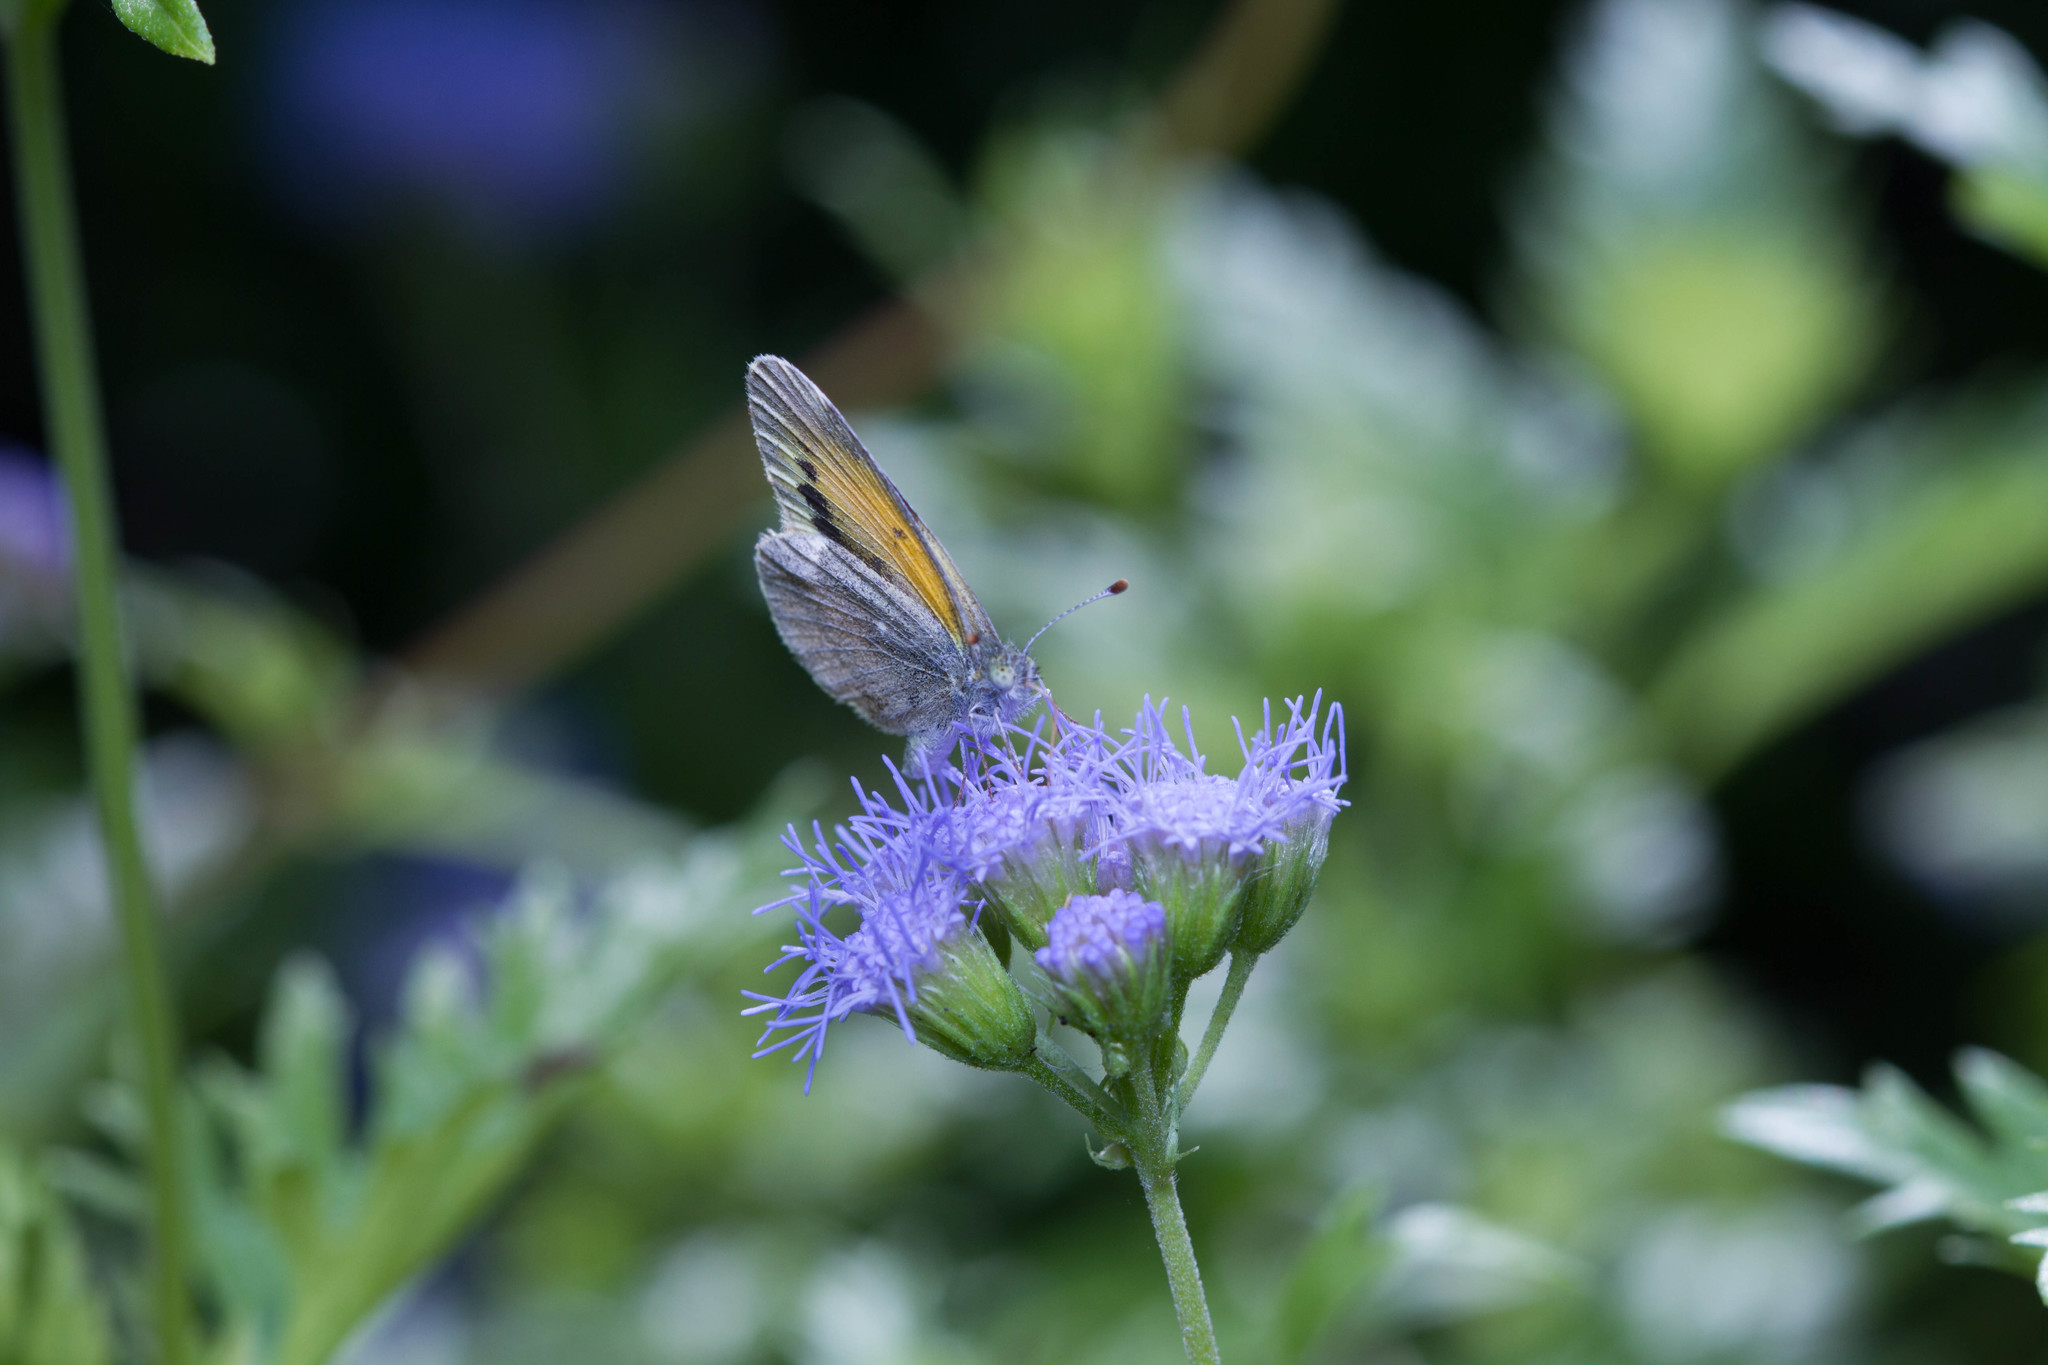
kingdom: Animalia
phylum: Arthropoda
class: Insecta
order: Lepidoptera
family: Pieridae
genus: Nathalis
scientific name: Nathalis iole
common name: Dainty sulphur
